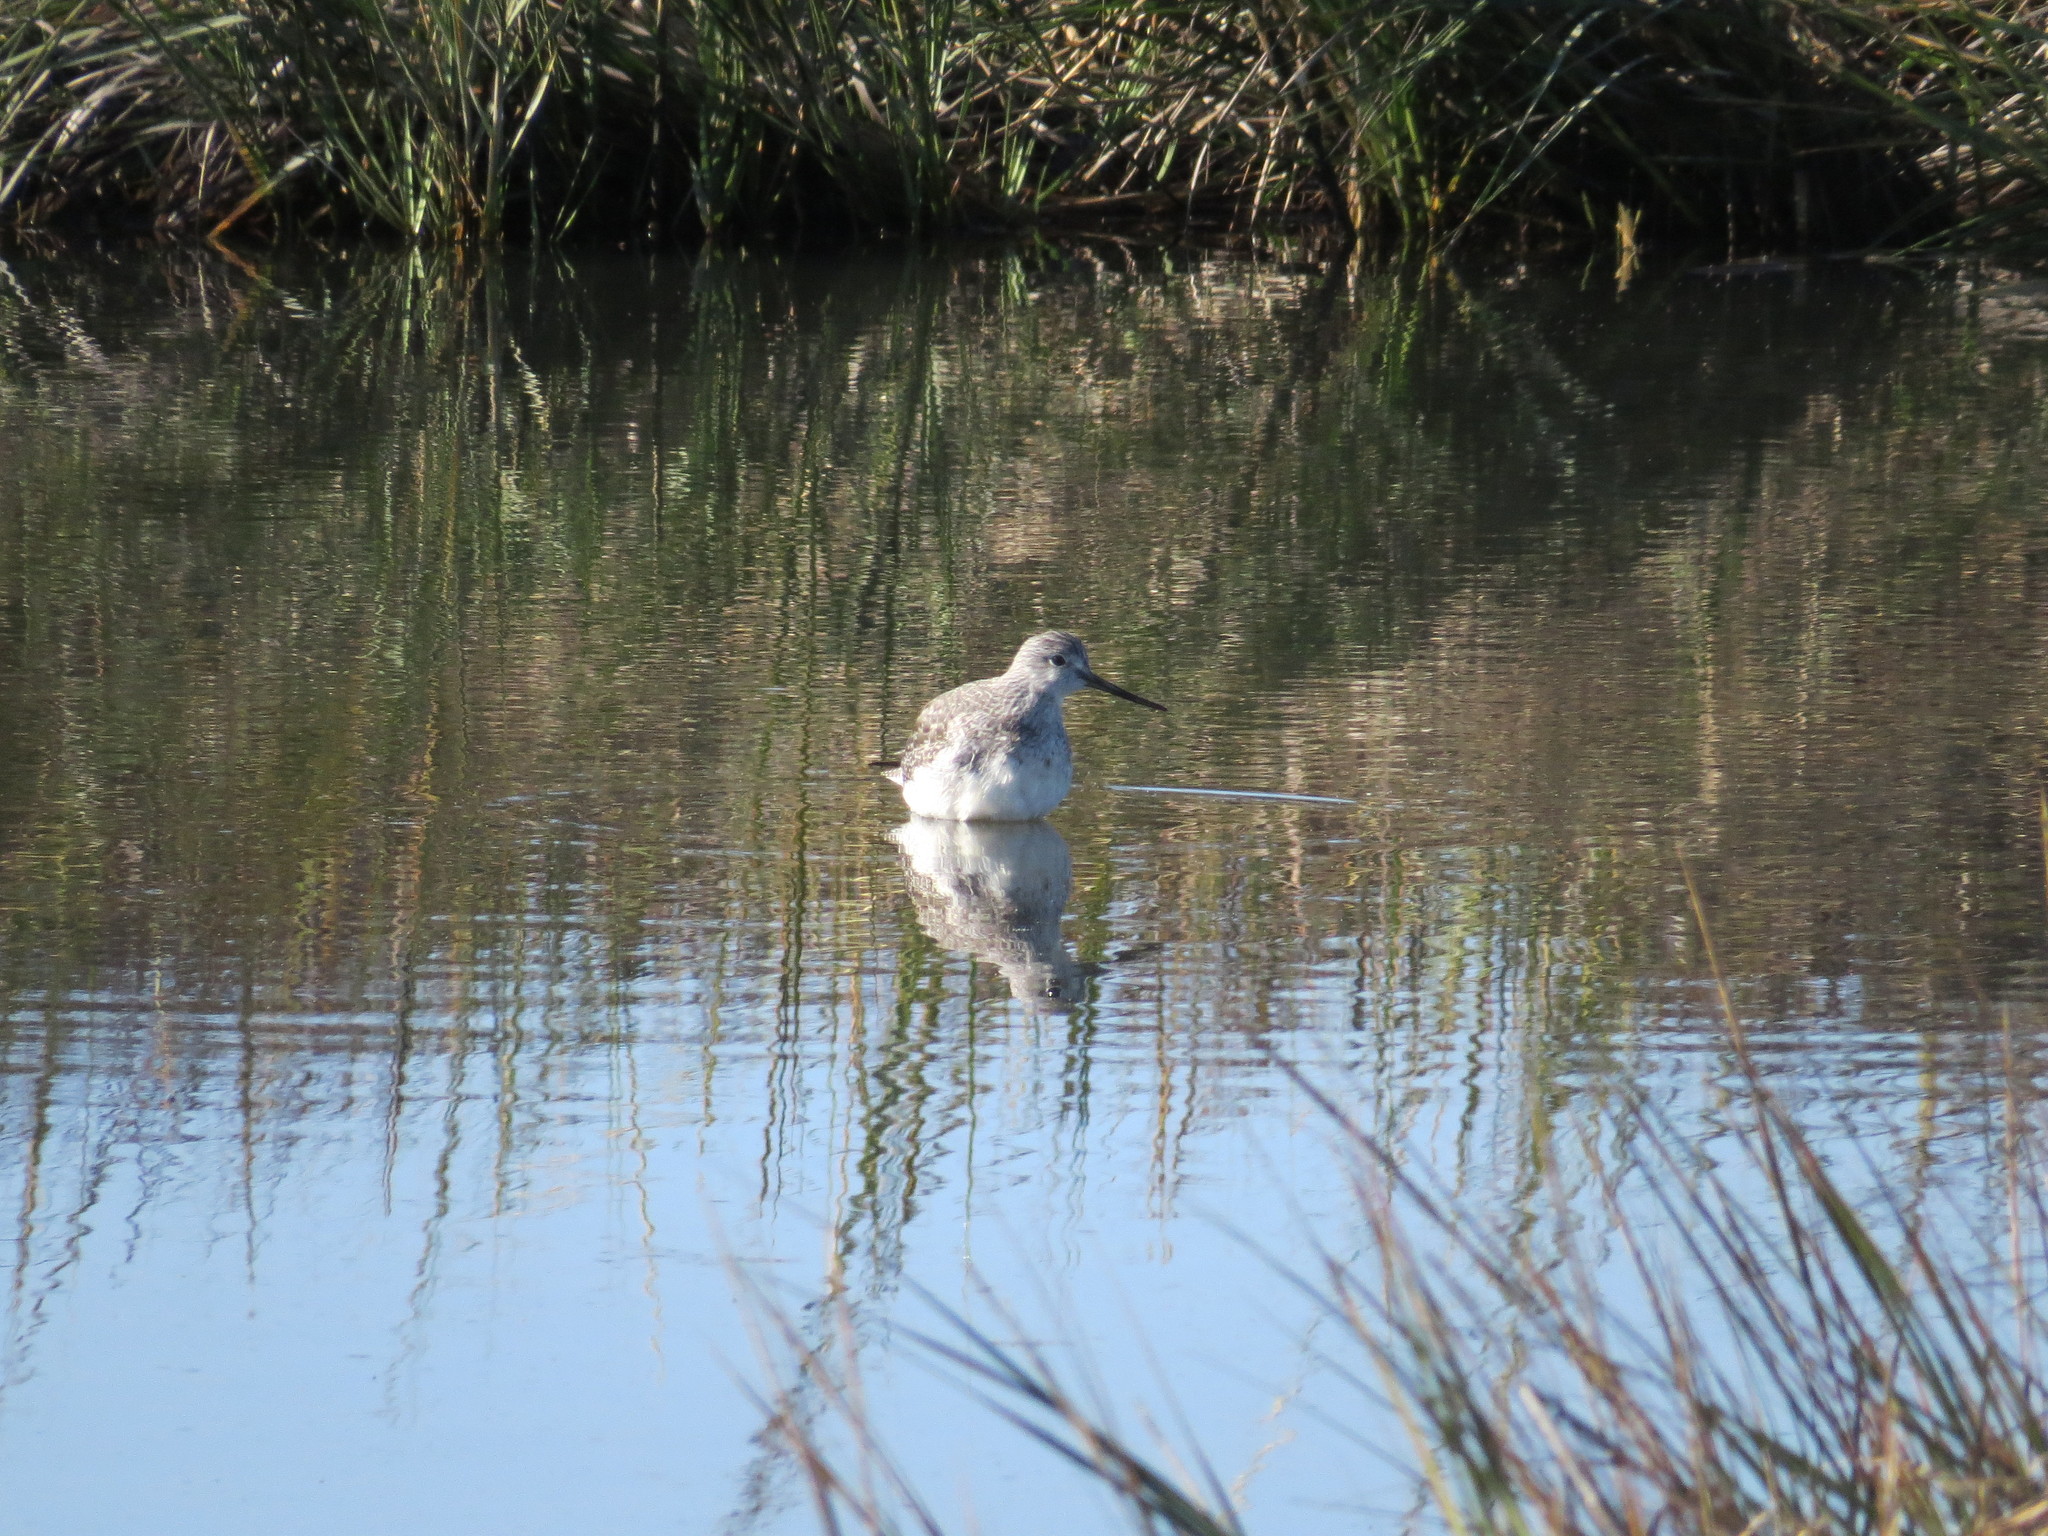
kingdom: Animalia
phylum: Chordata
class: Aves
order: Charadriiformes
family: Scolopacidae
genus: Tringa
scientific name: Tringa melanoleuca
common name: Greater yellowlegs
